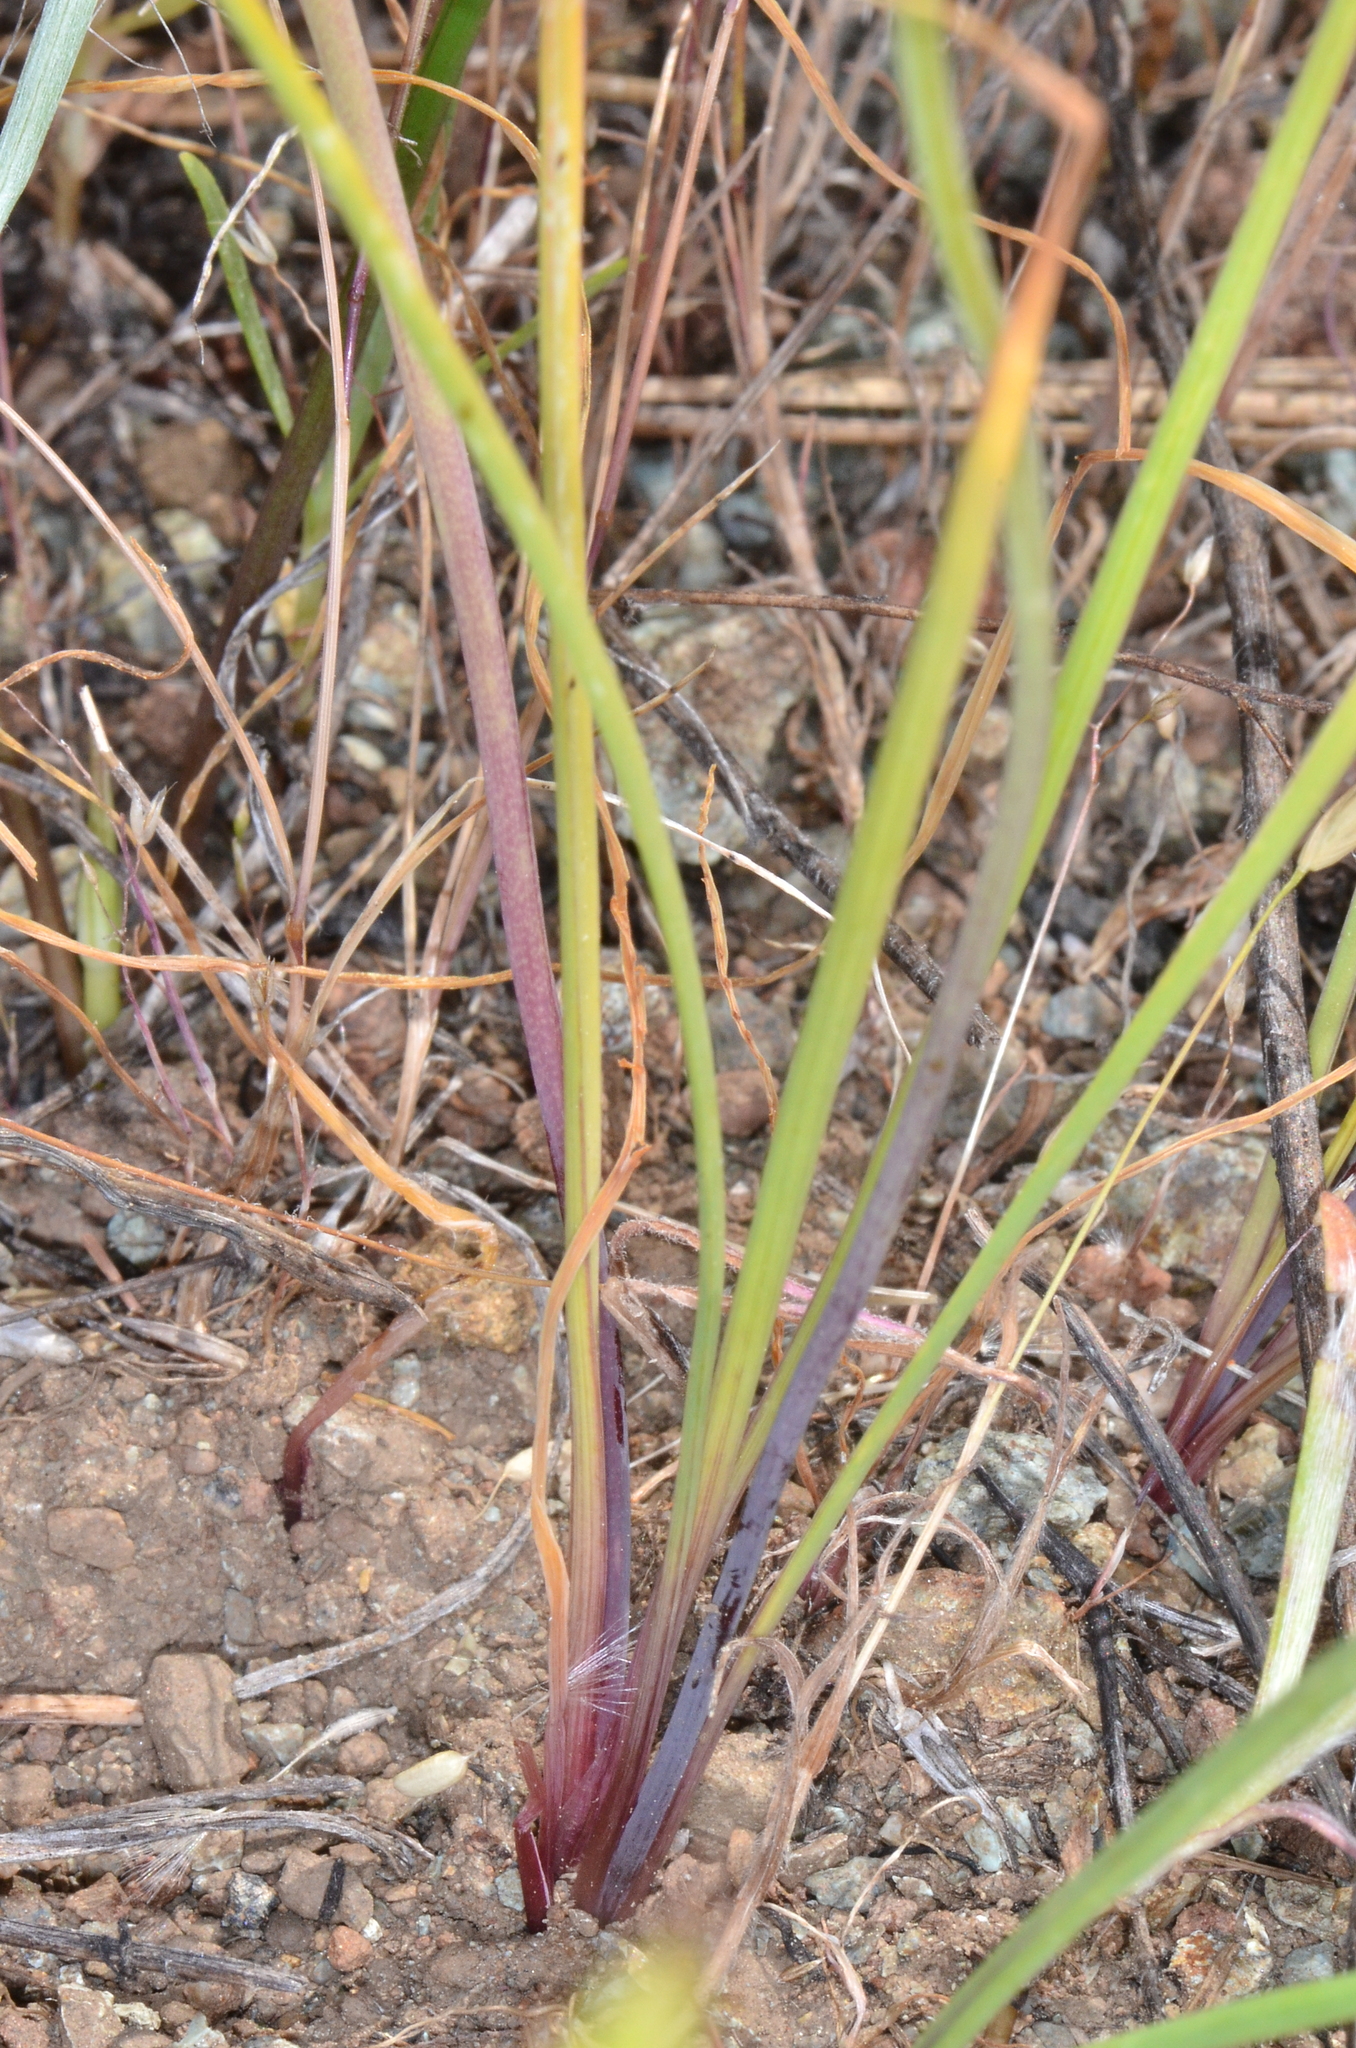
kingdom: Plantae
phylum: Tracheophyta
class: Liliopsida
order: Asparagales
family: Amaryllidaceae
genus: Allium
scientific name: Allium bolanderi
